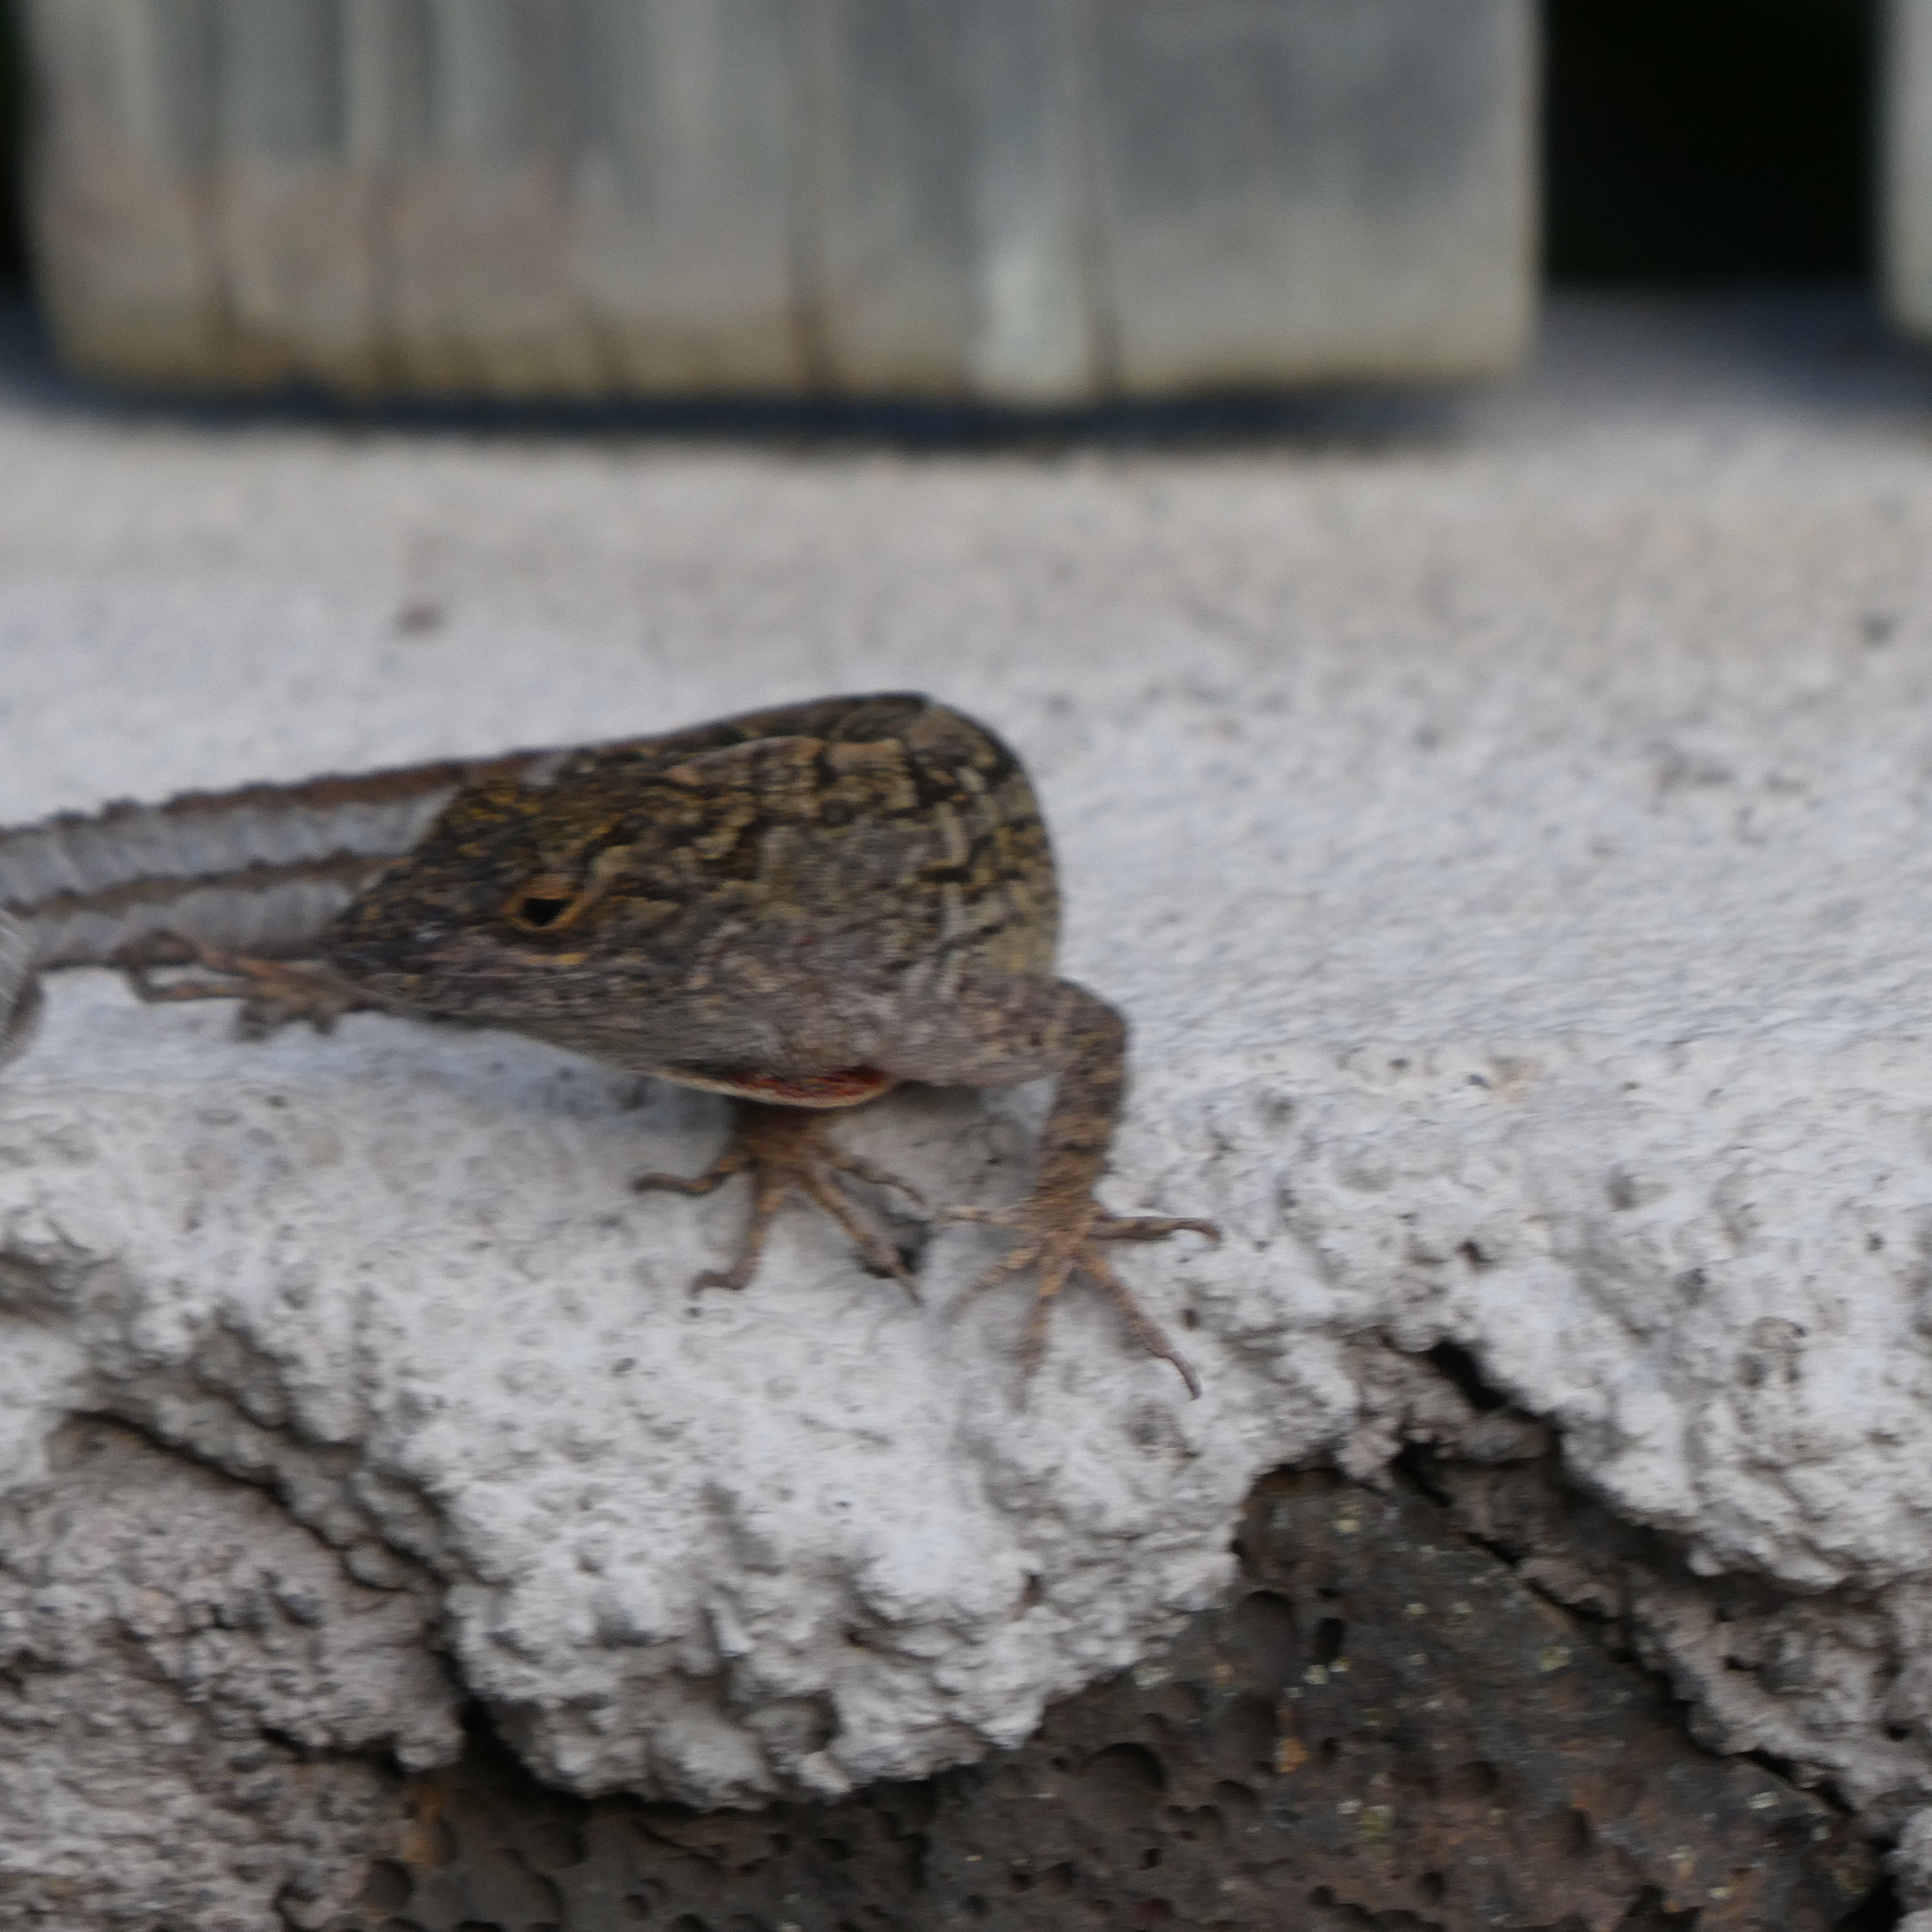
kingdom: Animalia
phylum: Chordata
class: Squamata
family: Dactyloidae
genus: Anolis
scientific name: Anolis sagrei
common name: Brown anole
